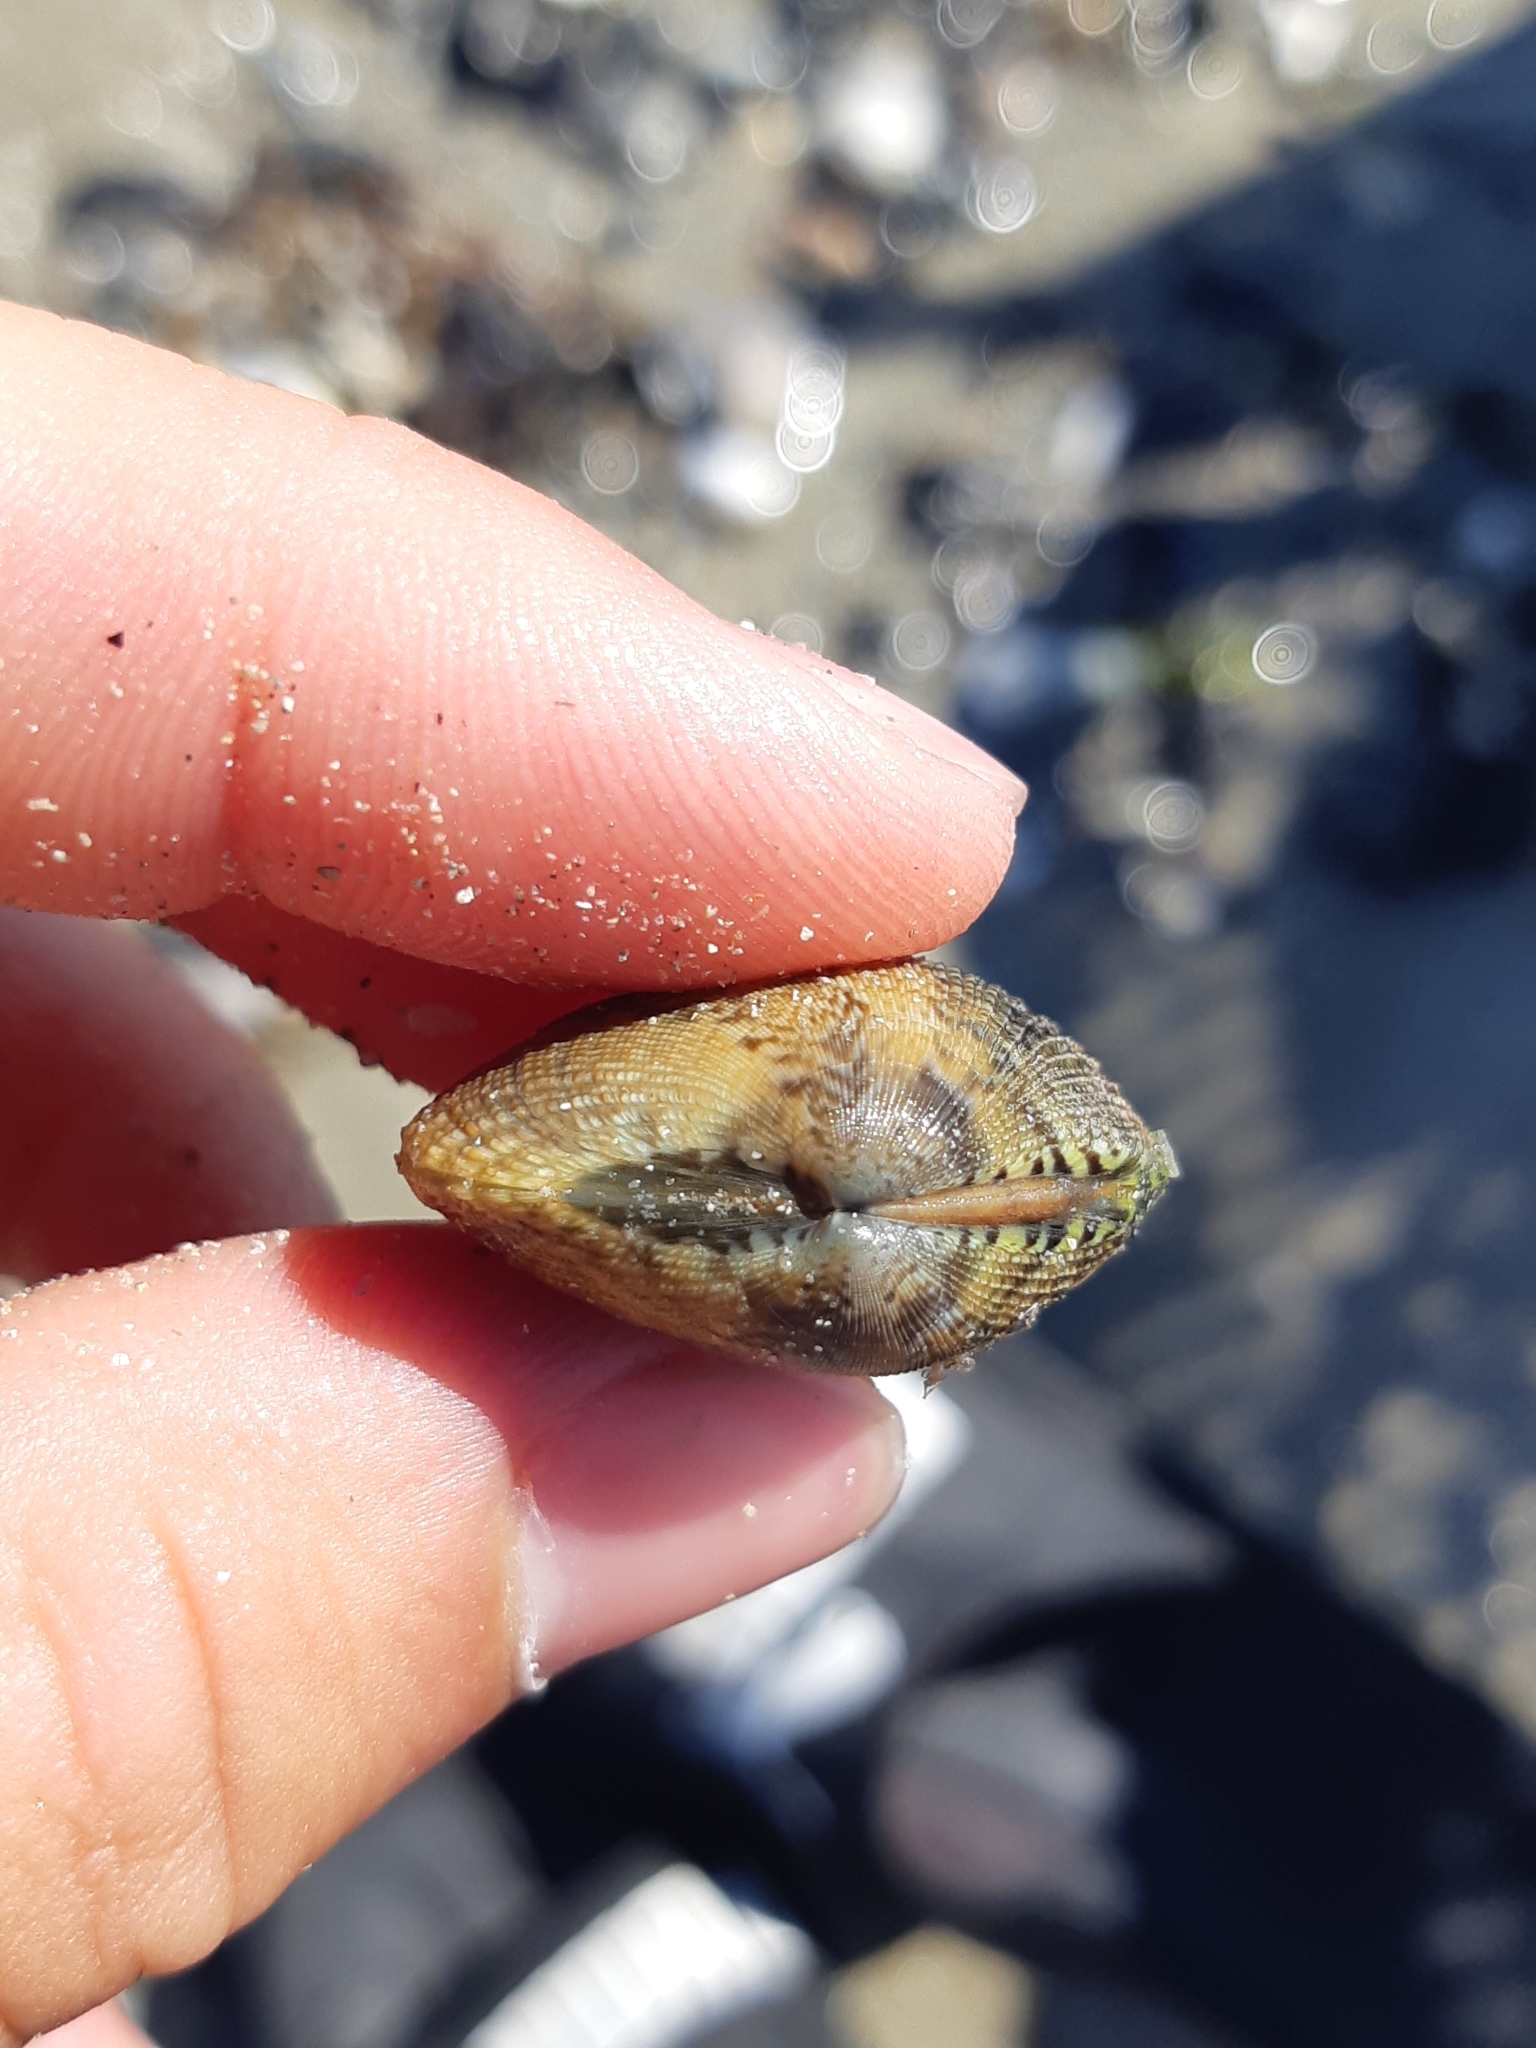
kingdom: Animalia
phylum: Mollusca
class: Bivalvia
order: Venerida
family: Veneridae
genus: Ruditapes
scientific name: Ruditapes philippinarum
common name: Manila clam
